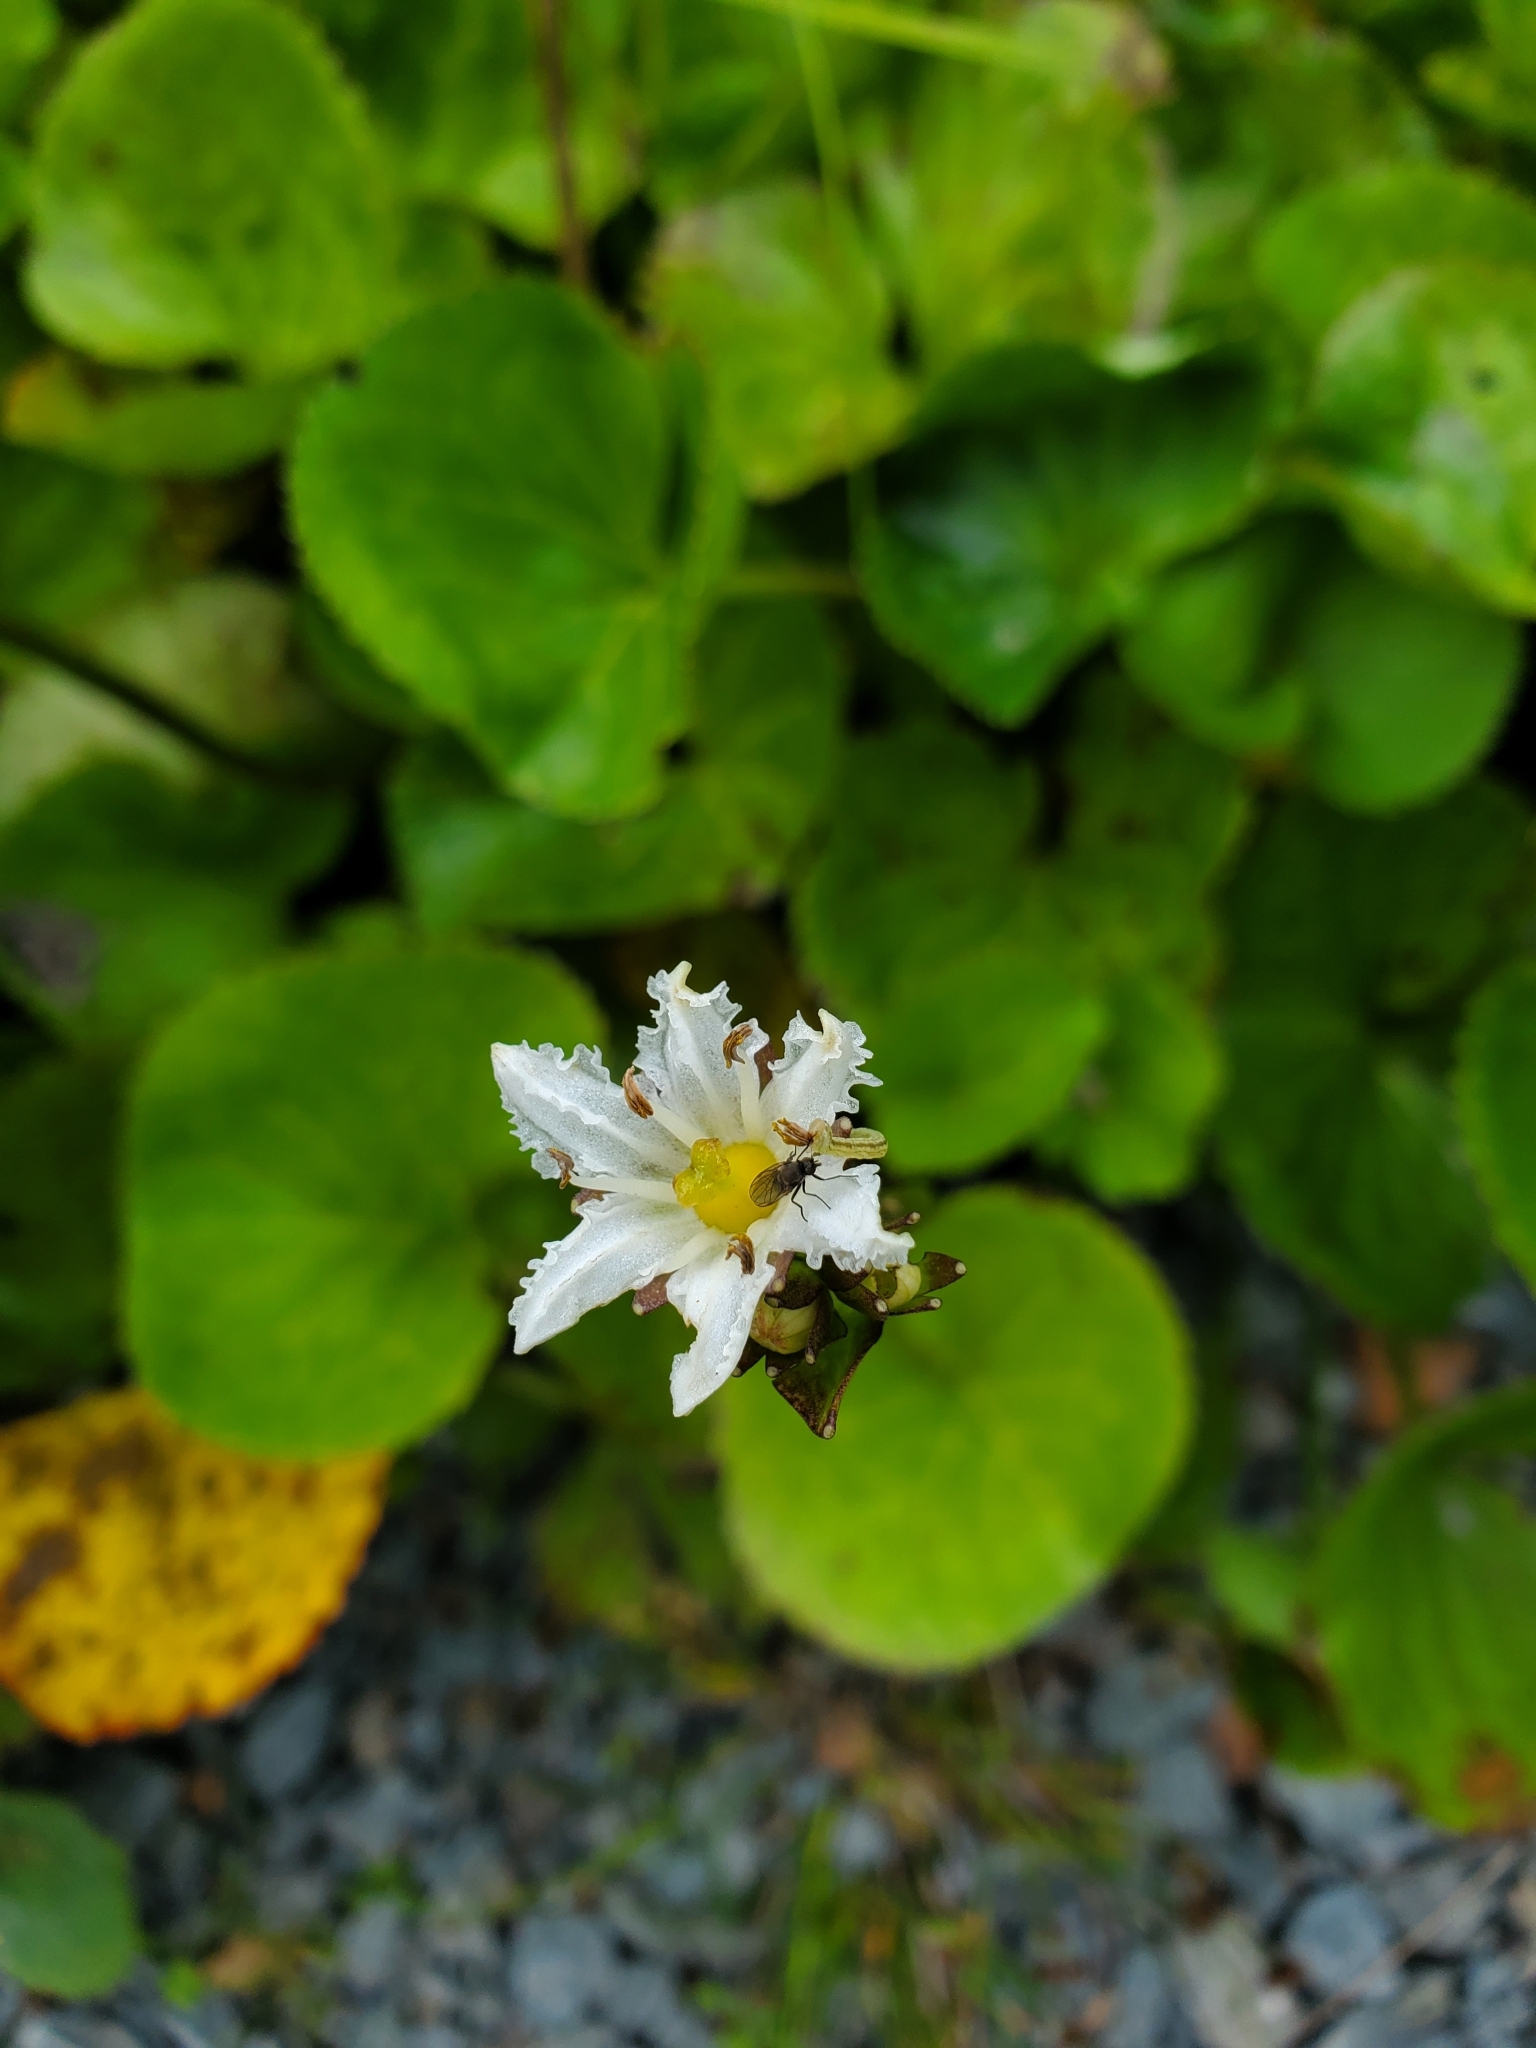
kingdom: Plantae
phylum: Tracheophyta
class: Magnoliopsida
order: Asterales
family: Menyanthaceae
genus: Nephrophyllidium
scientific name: Nephrophyllidium crista-galli
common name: Deer-cabbage
